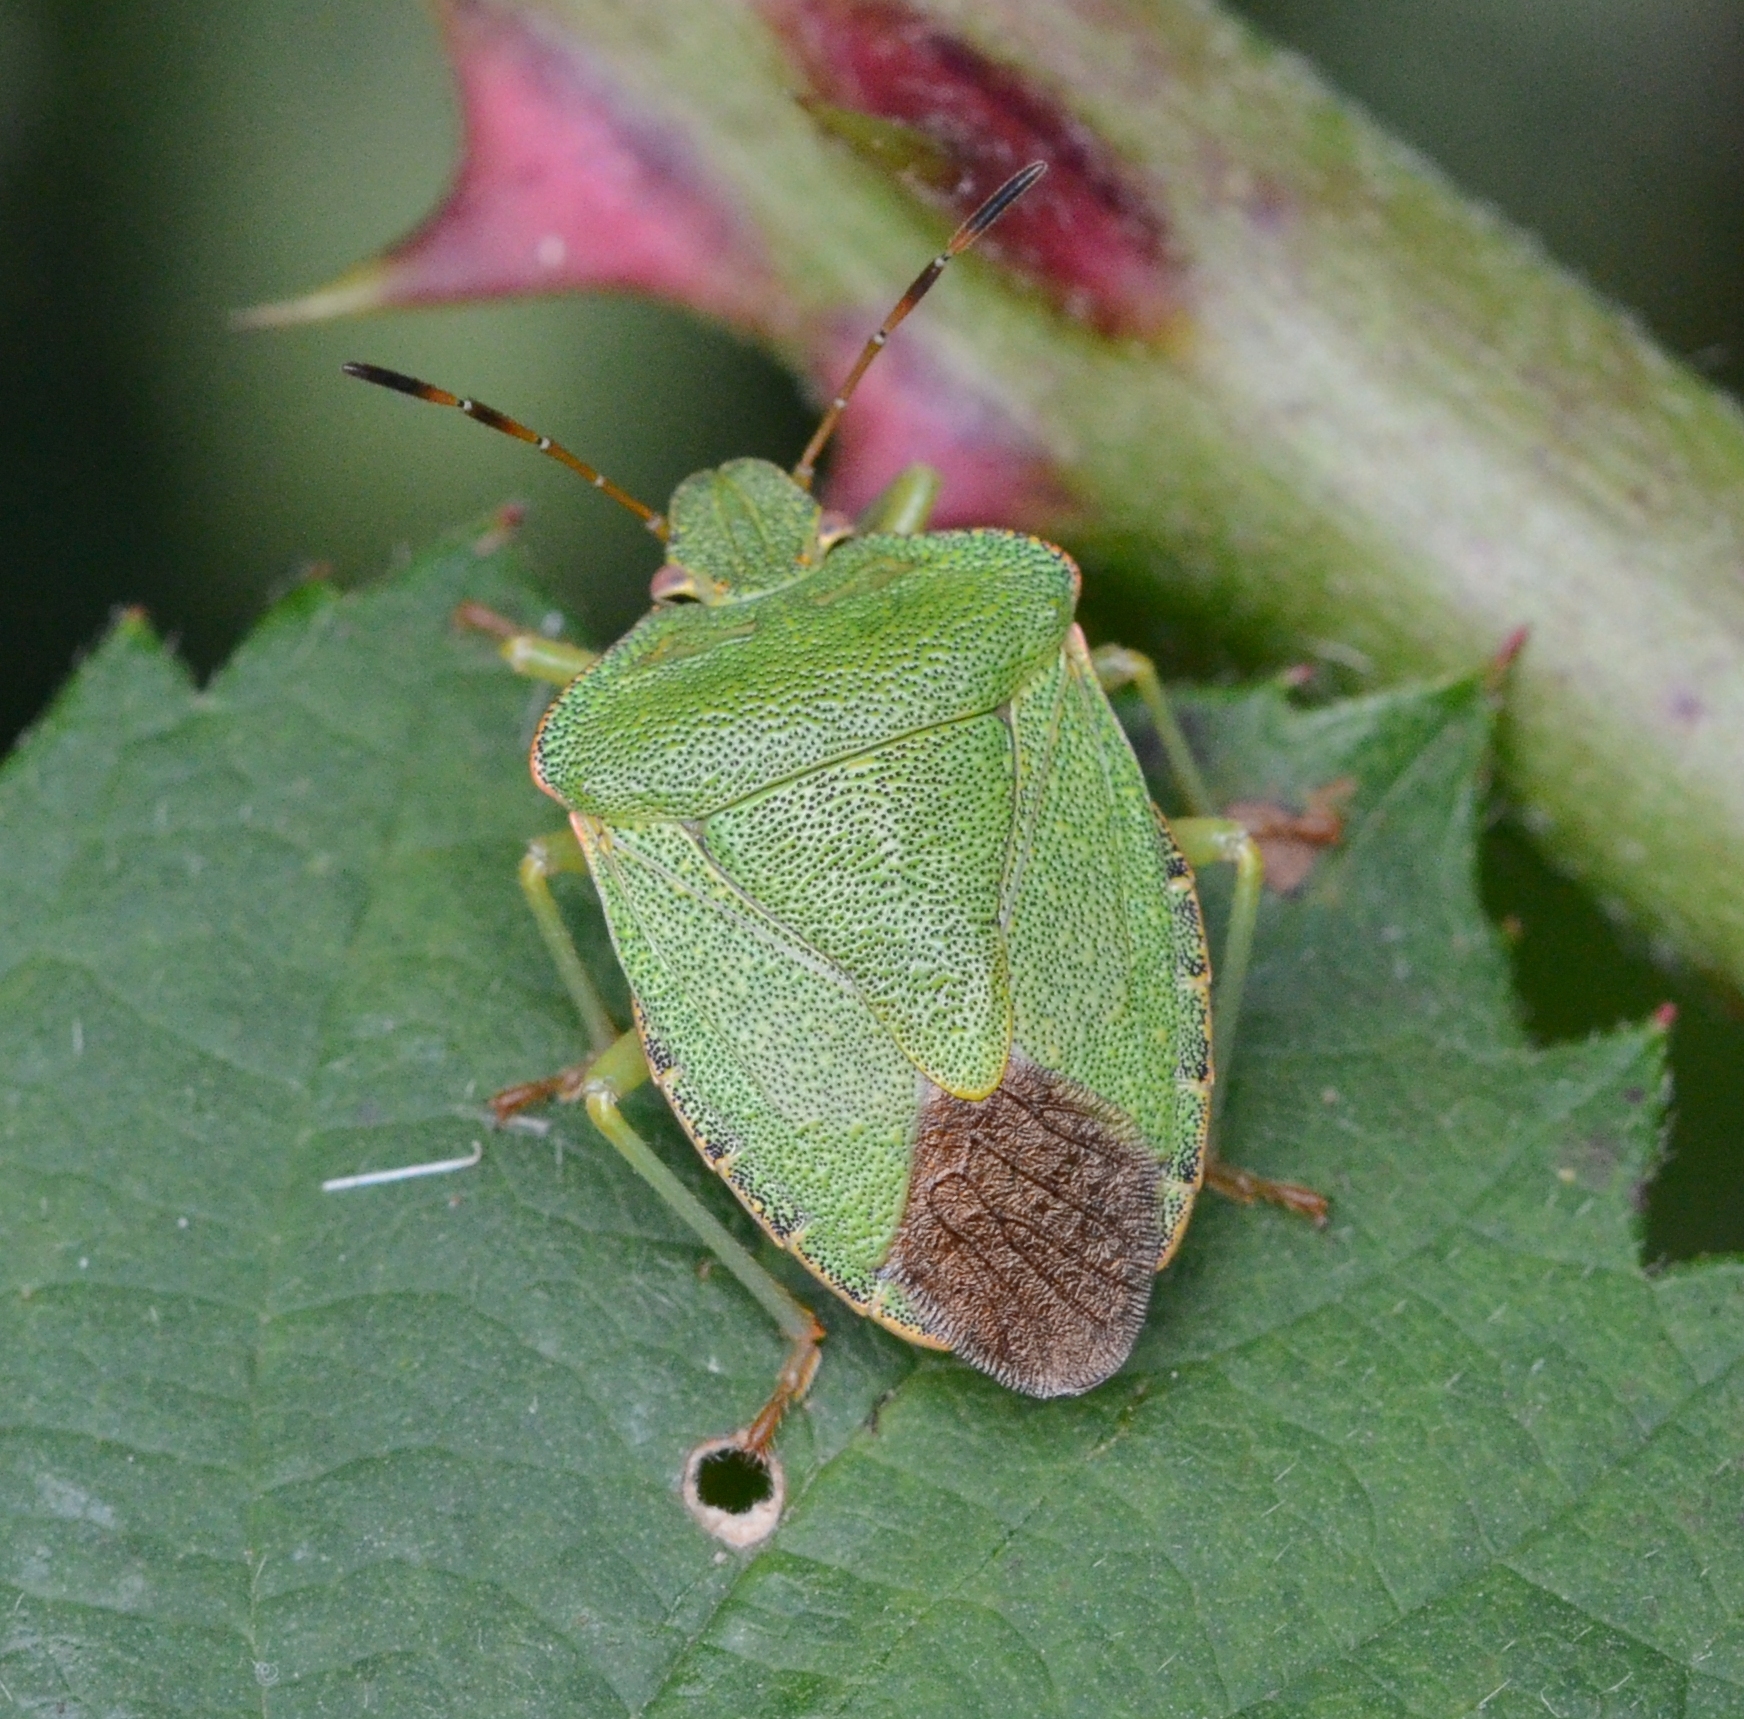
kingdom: Animalia
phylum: Arthropoda
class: Insecta
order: Hemiptera
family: Pentatomidae
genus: Palomena
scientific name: Palomena prasina
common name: Green shieldbug
